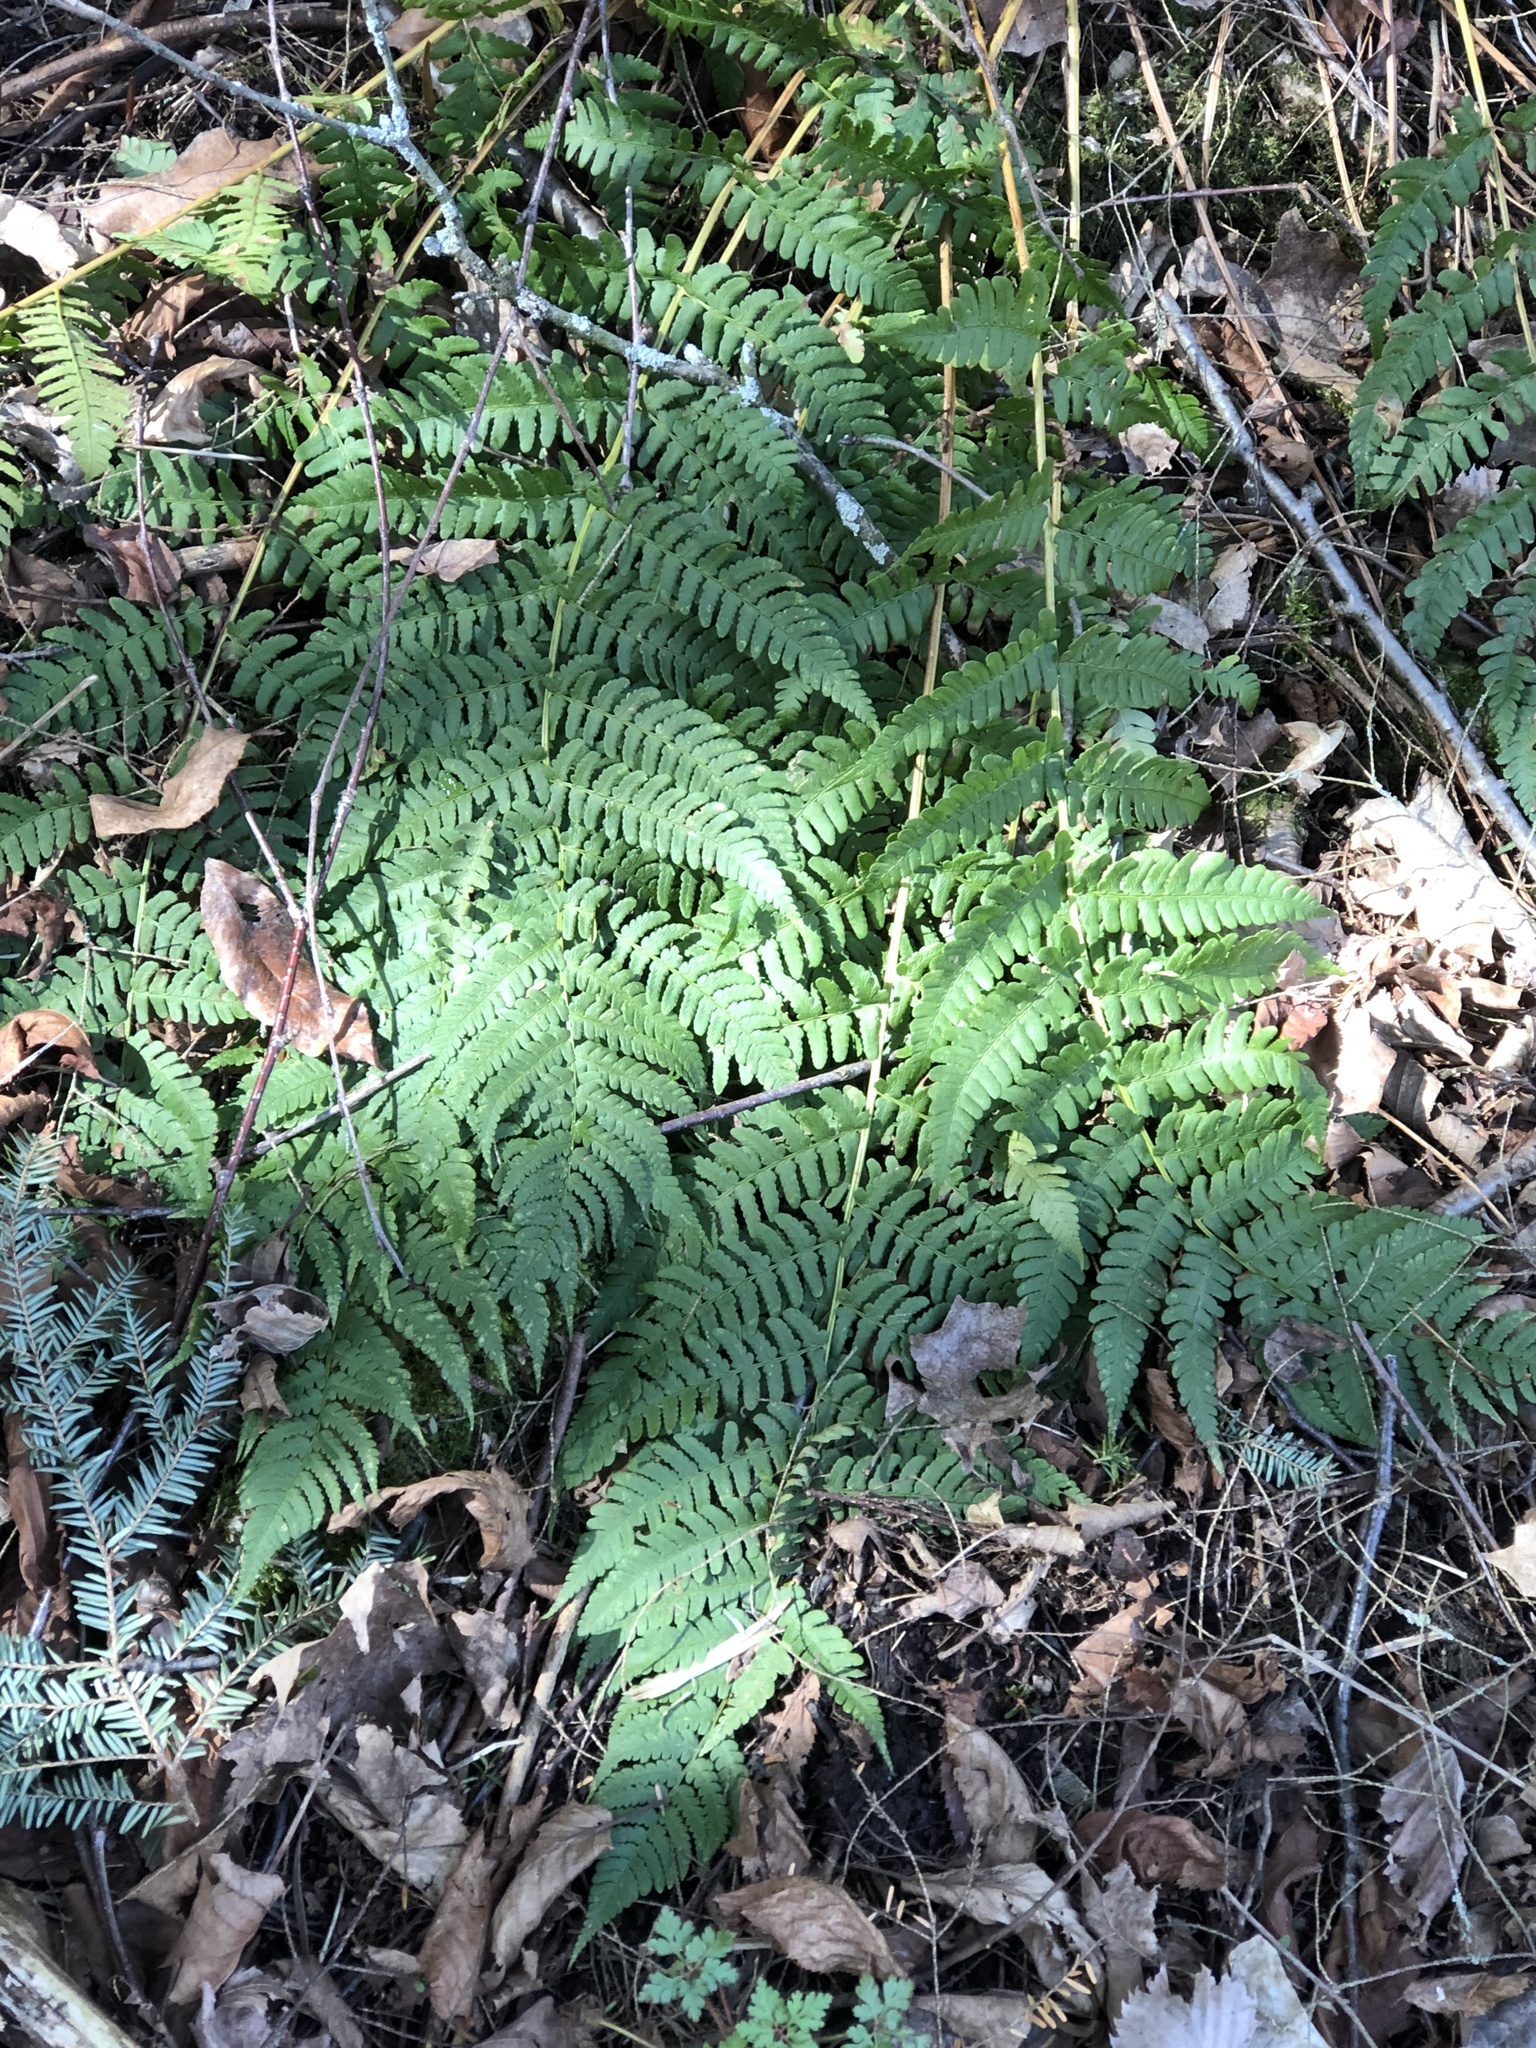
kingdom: Plantae
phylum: Tracheophyta
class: Polypodiopsida
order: Polypodiales
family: Dryopteridaceae
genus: Dryopteris
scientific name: Dryopteris marginalis
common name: Marginal wood fern
